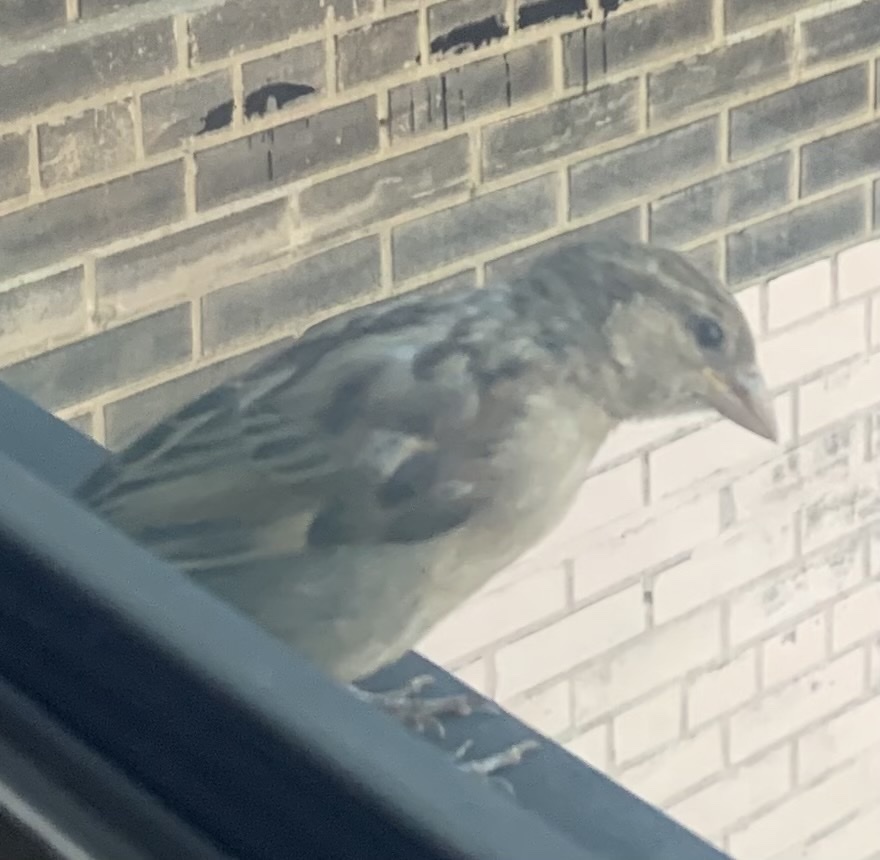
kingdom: Animalia
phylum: Chordata
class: Aves
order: Passeriformes
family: Passeridae
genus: Passer
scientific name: Passer domesticus
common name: House sparrow
